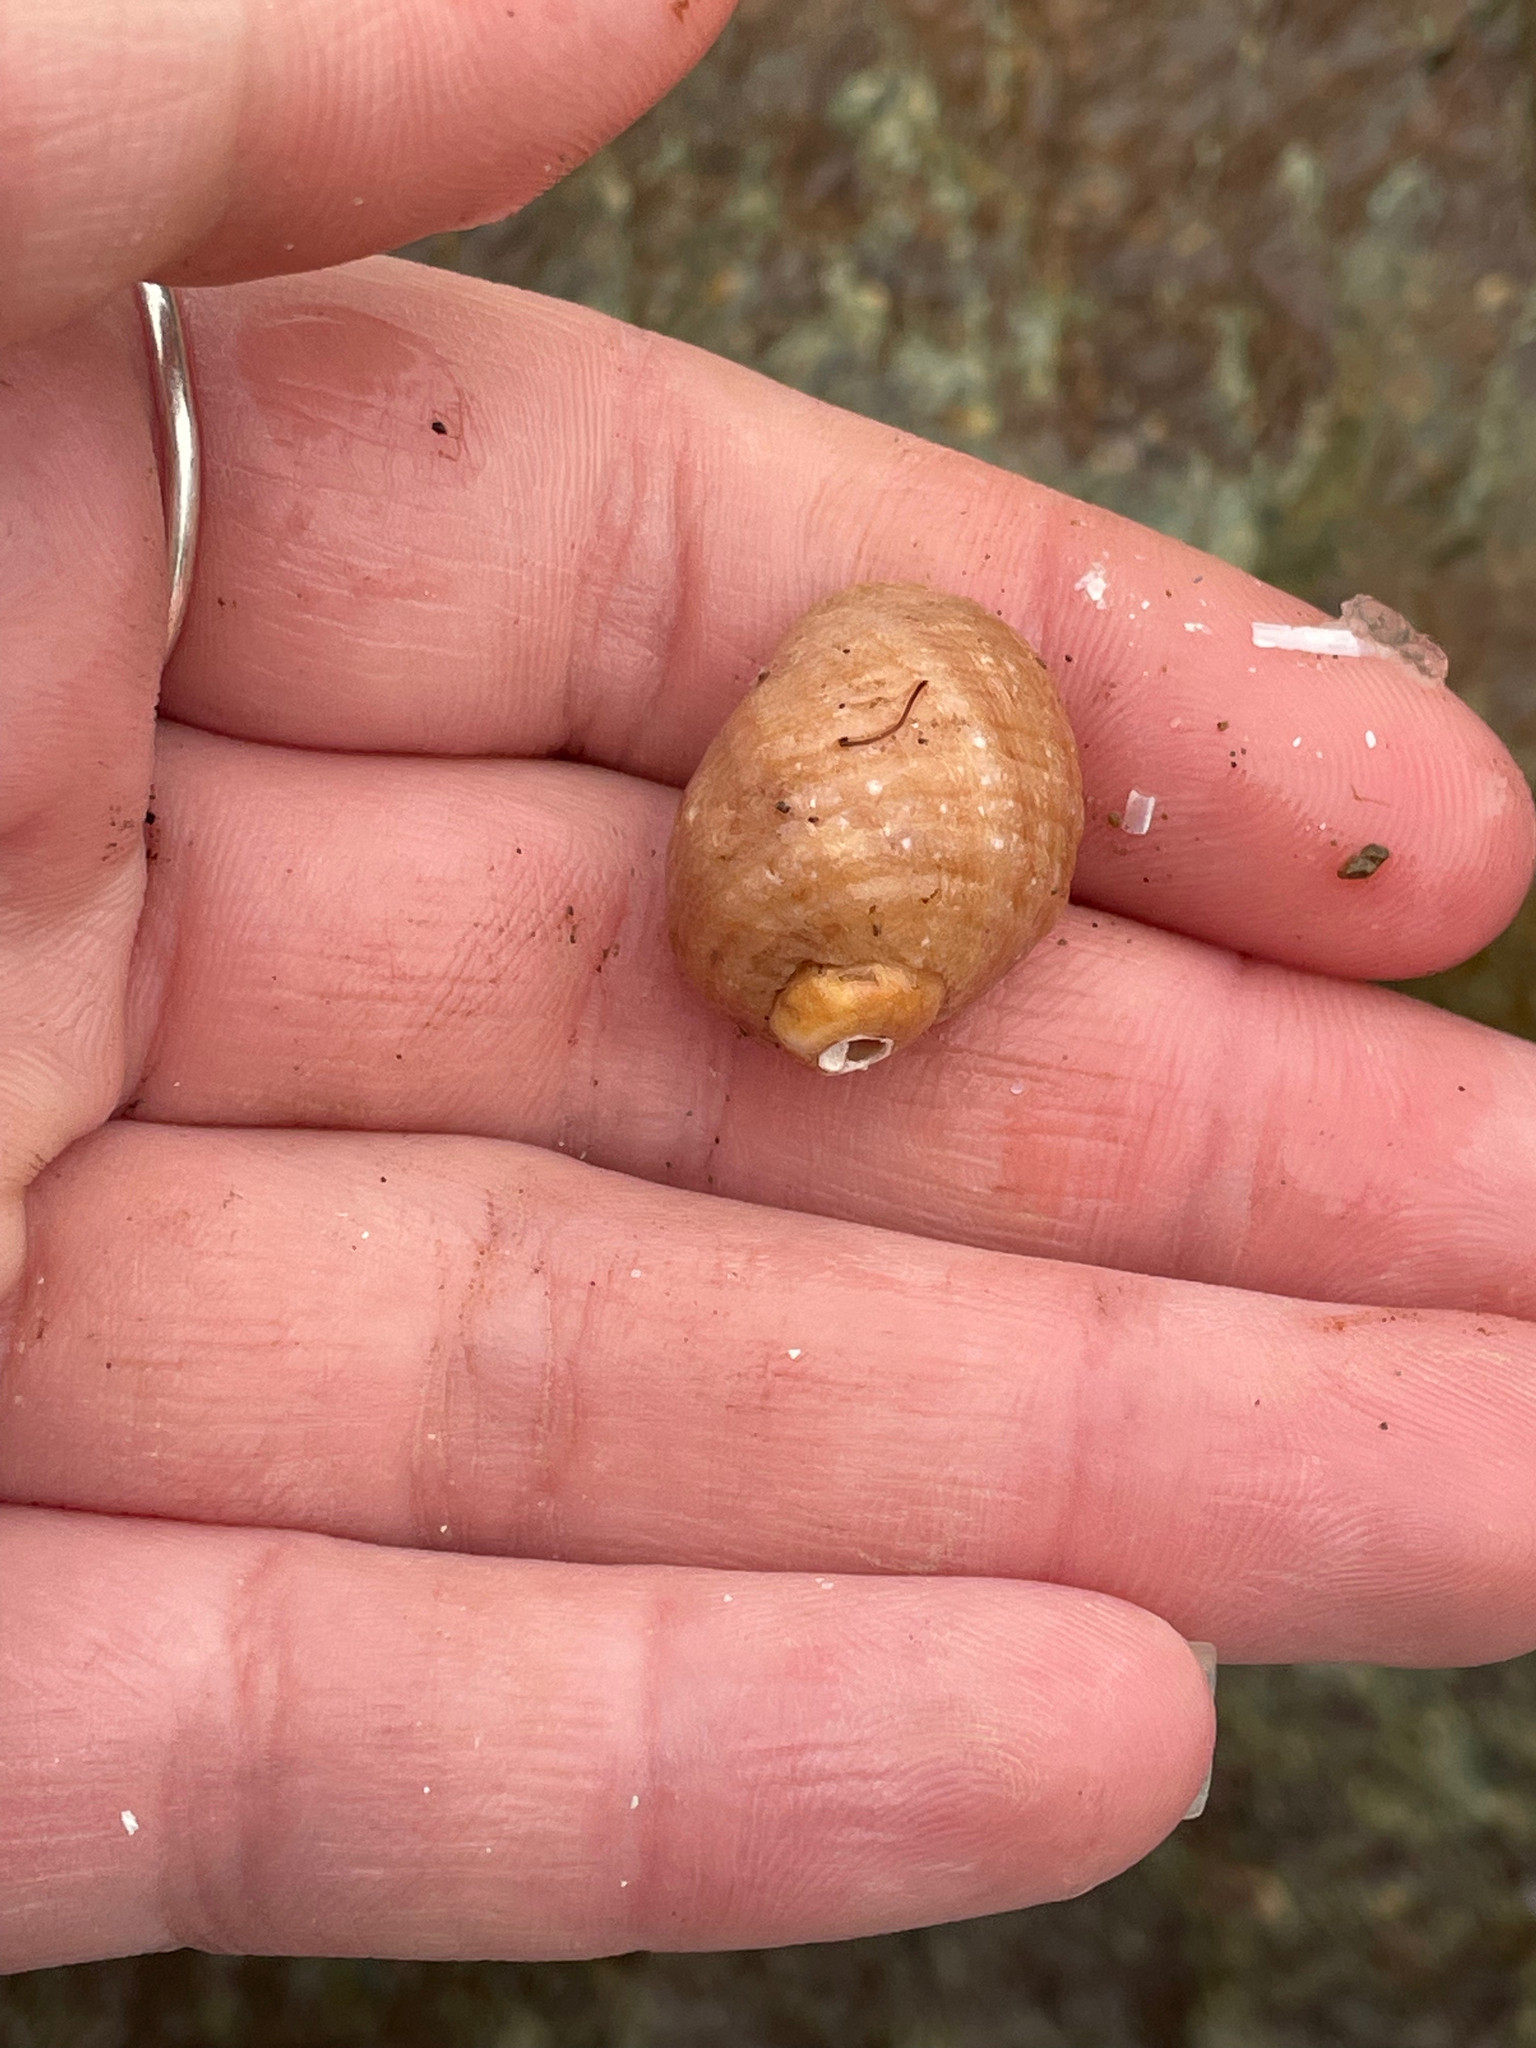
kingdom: Animalia
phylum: Mollusca
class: Gastropoda
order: Neogastropoda
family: Muricidae
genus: Nucella
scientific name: Nucella lapillus
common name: Dog whelk
